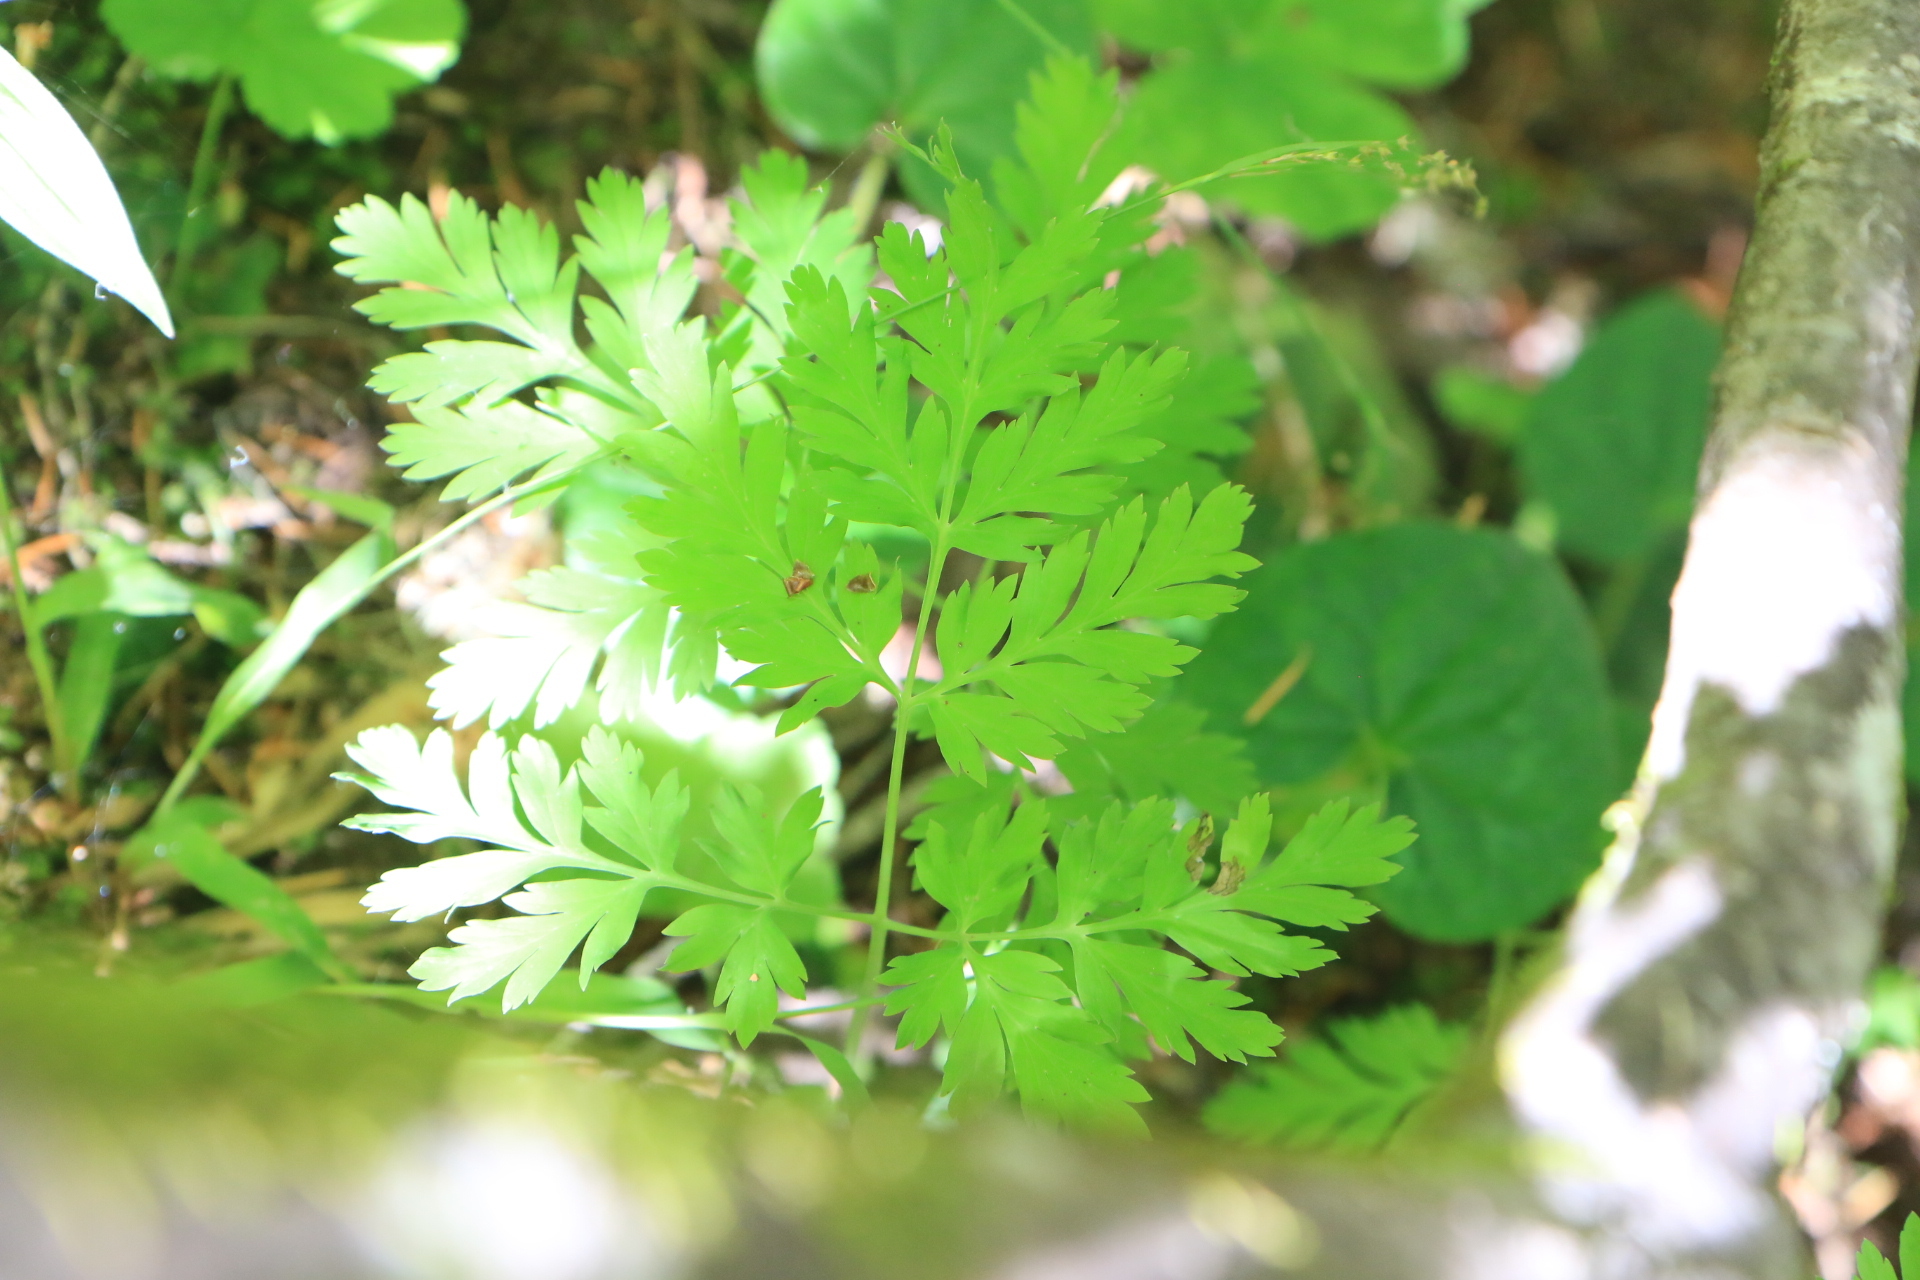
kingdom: Plantae
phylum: Tracheophyta
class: Magnoliopsida
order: Ranunculales
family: Papaveraceae
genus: Dicentra
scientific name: Dicentra formosa
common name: Bleeding-heart
